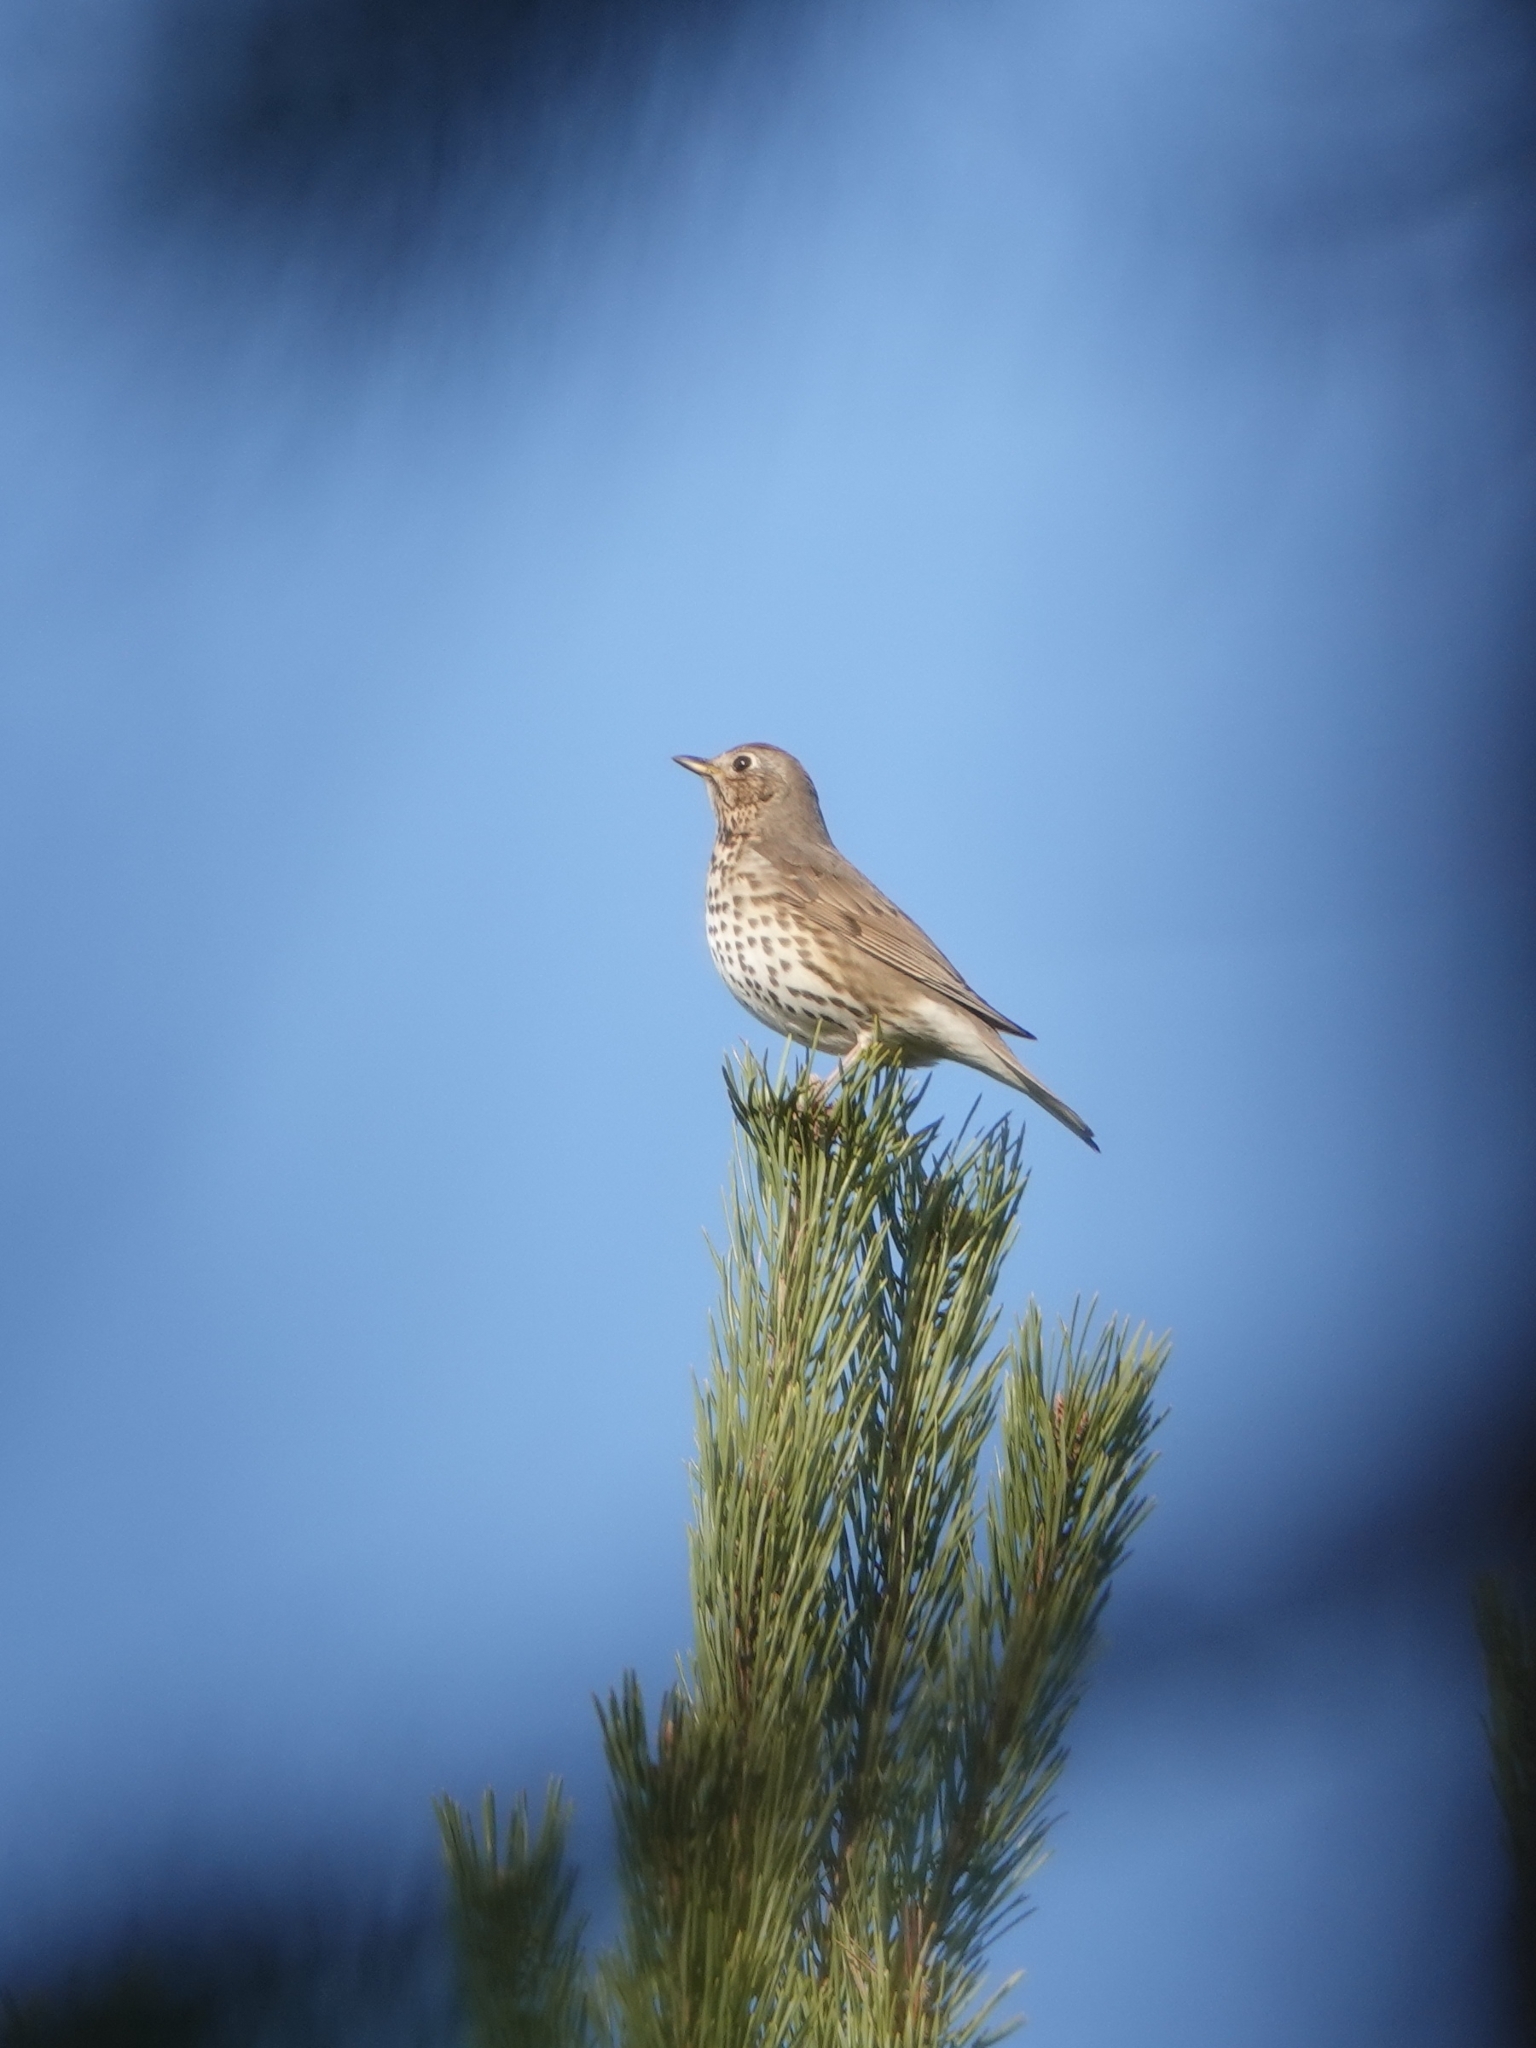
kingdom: Animalia
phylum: Chordata
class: Aves
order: Passeriformes
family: Turdidae
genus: Turdus
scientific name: Turdus philomelos
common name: Song thrush
